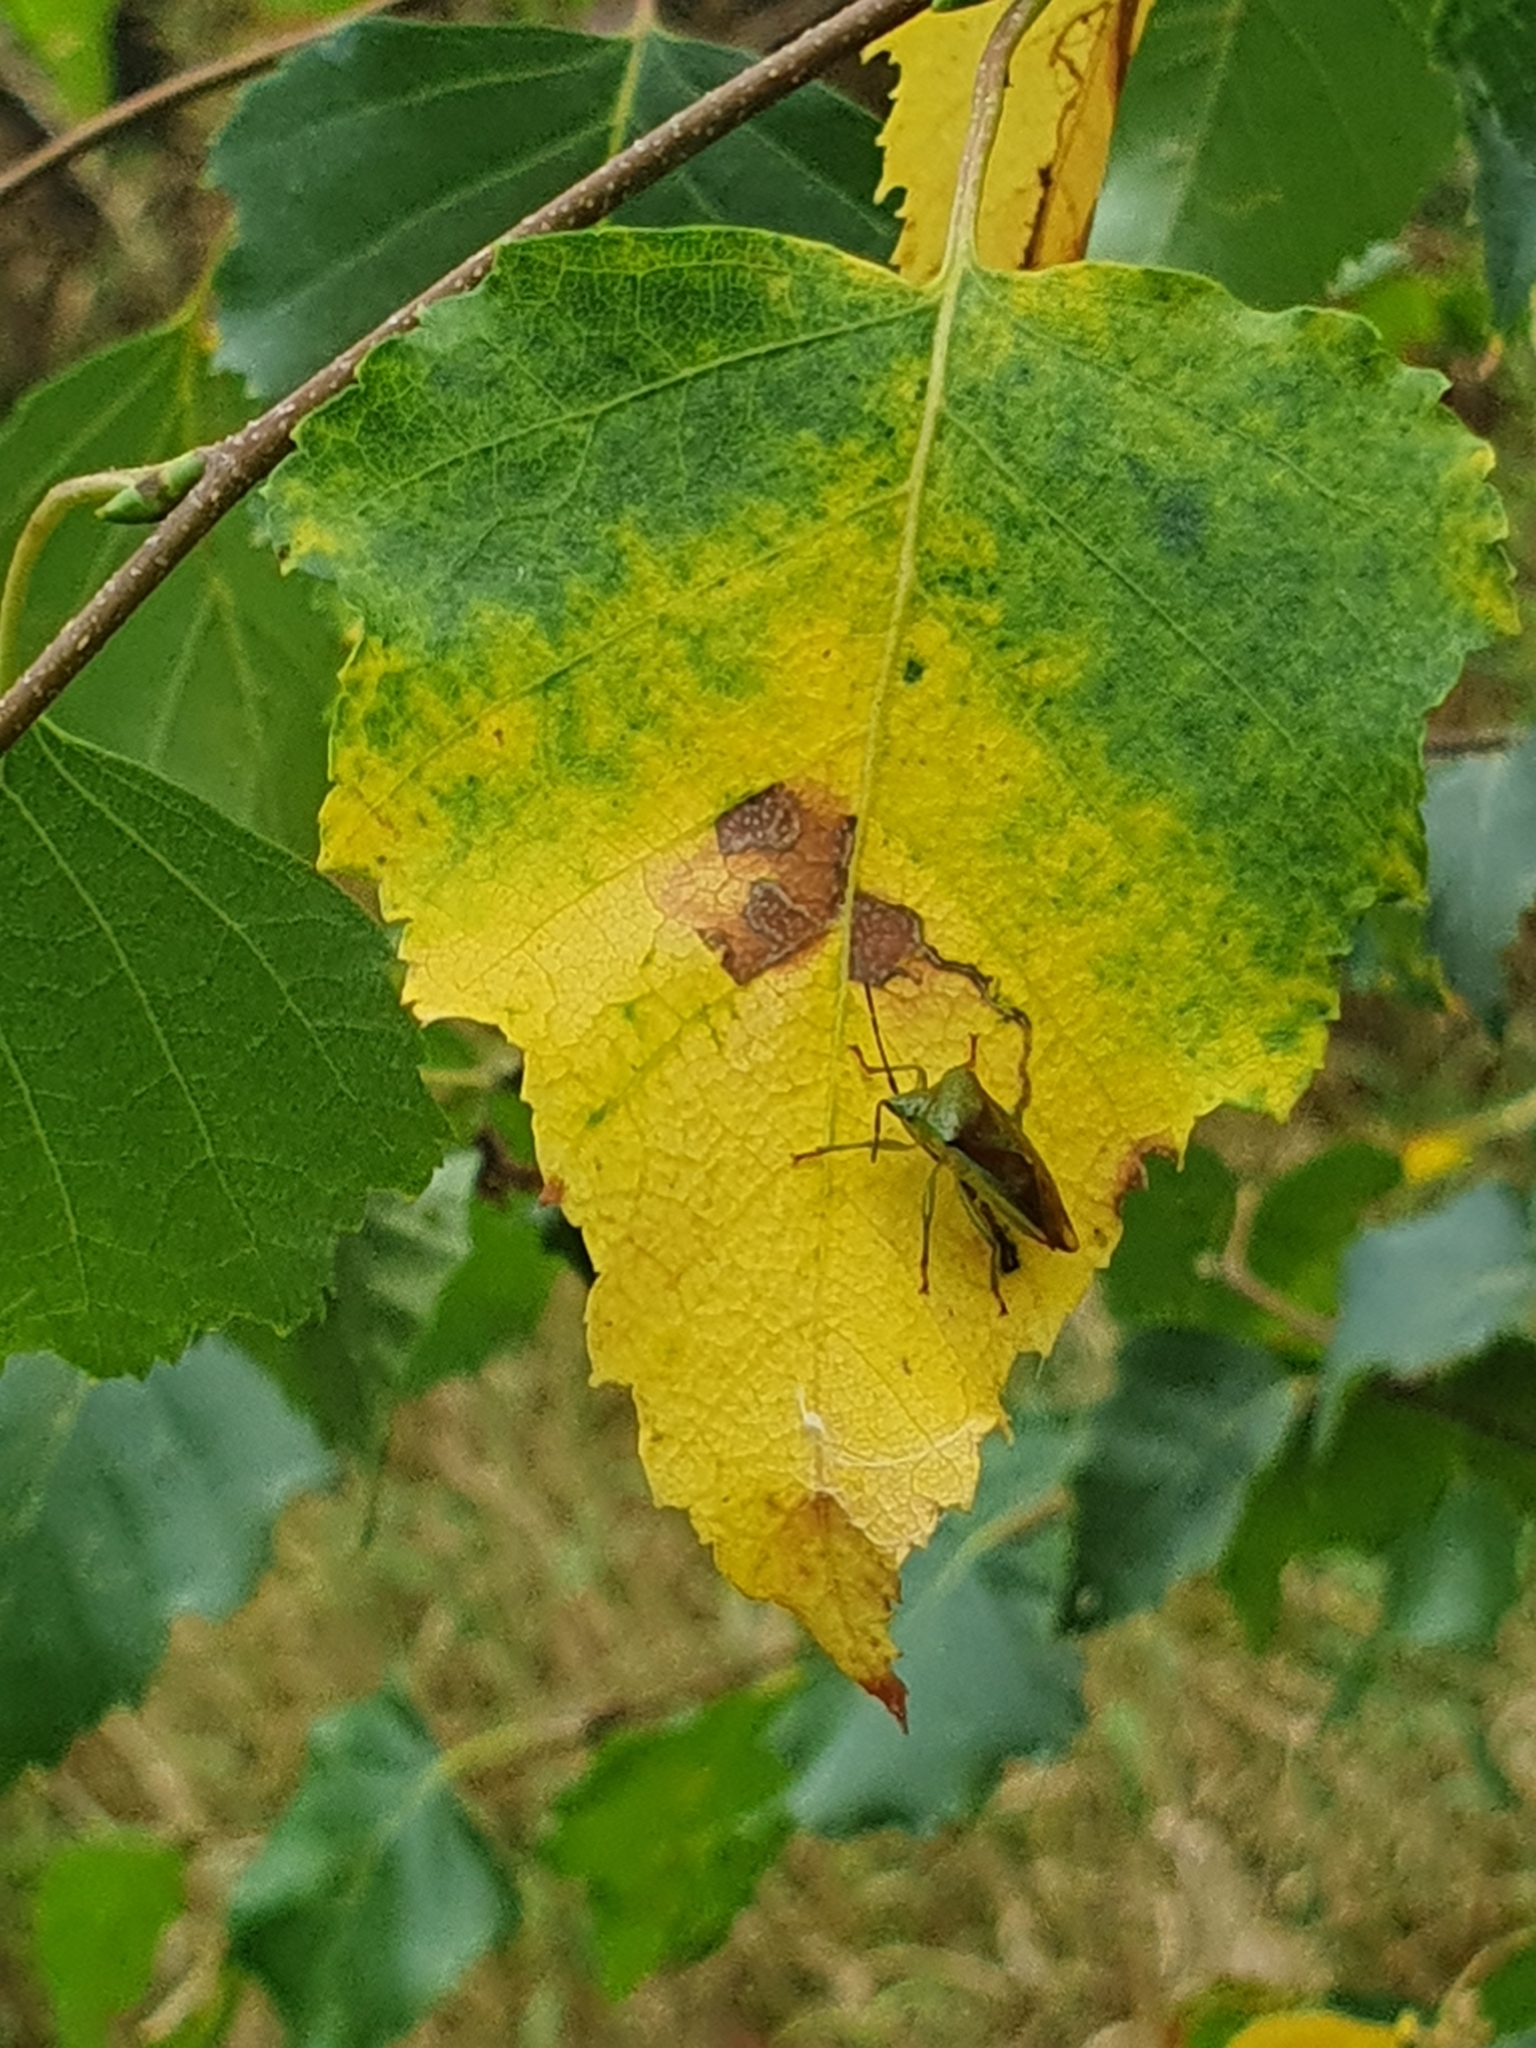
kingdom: Animalia
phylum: Arthropoda
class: Insecta
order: Hemiptera
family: Acanthosomatidae
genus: Elasmostethus
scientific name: Elasmostethus interstinctus
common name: Birch shieldbug
